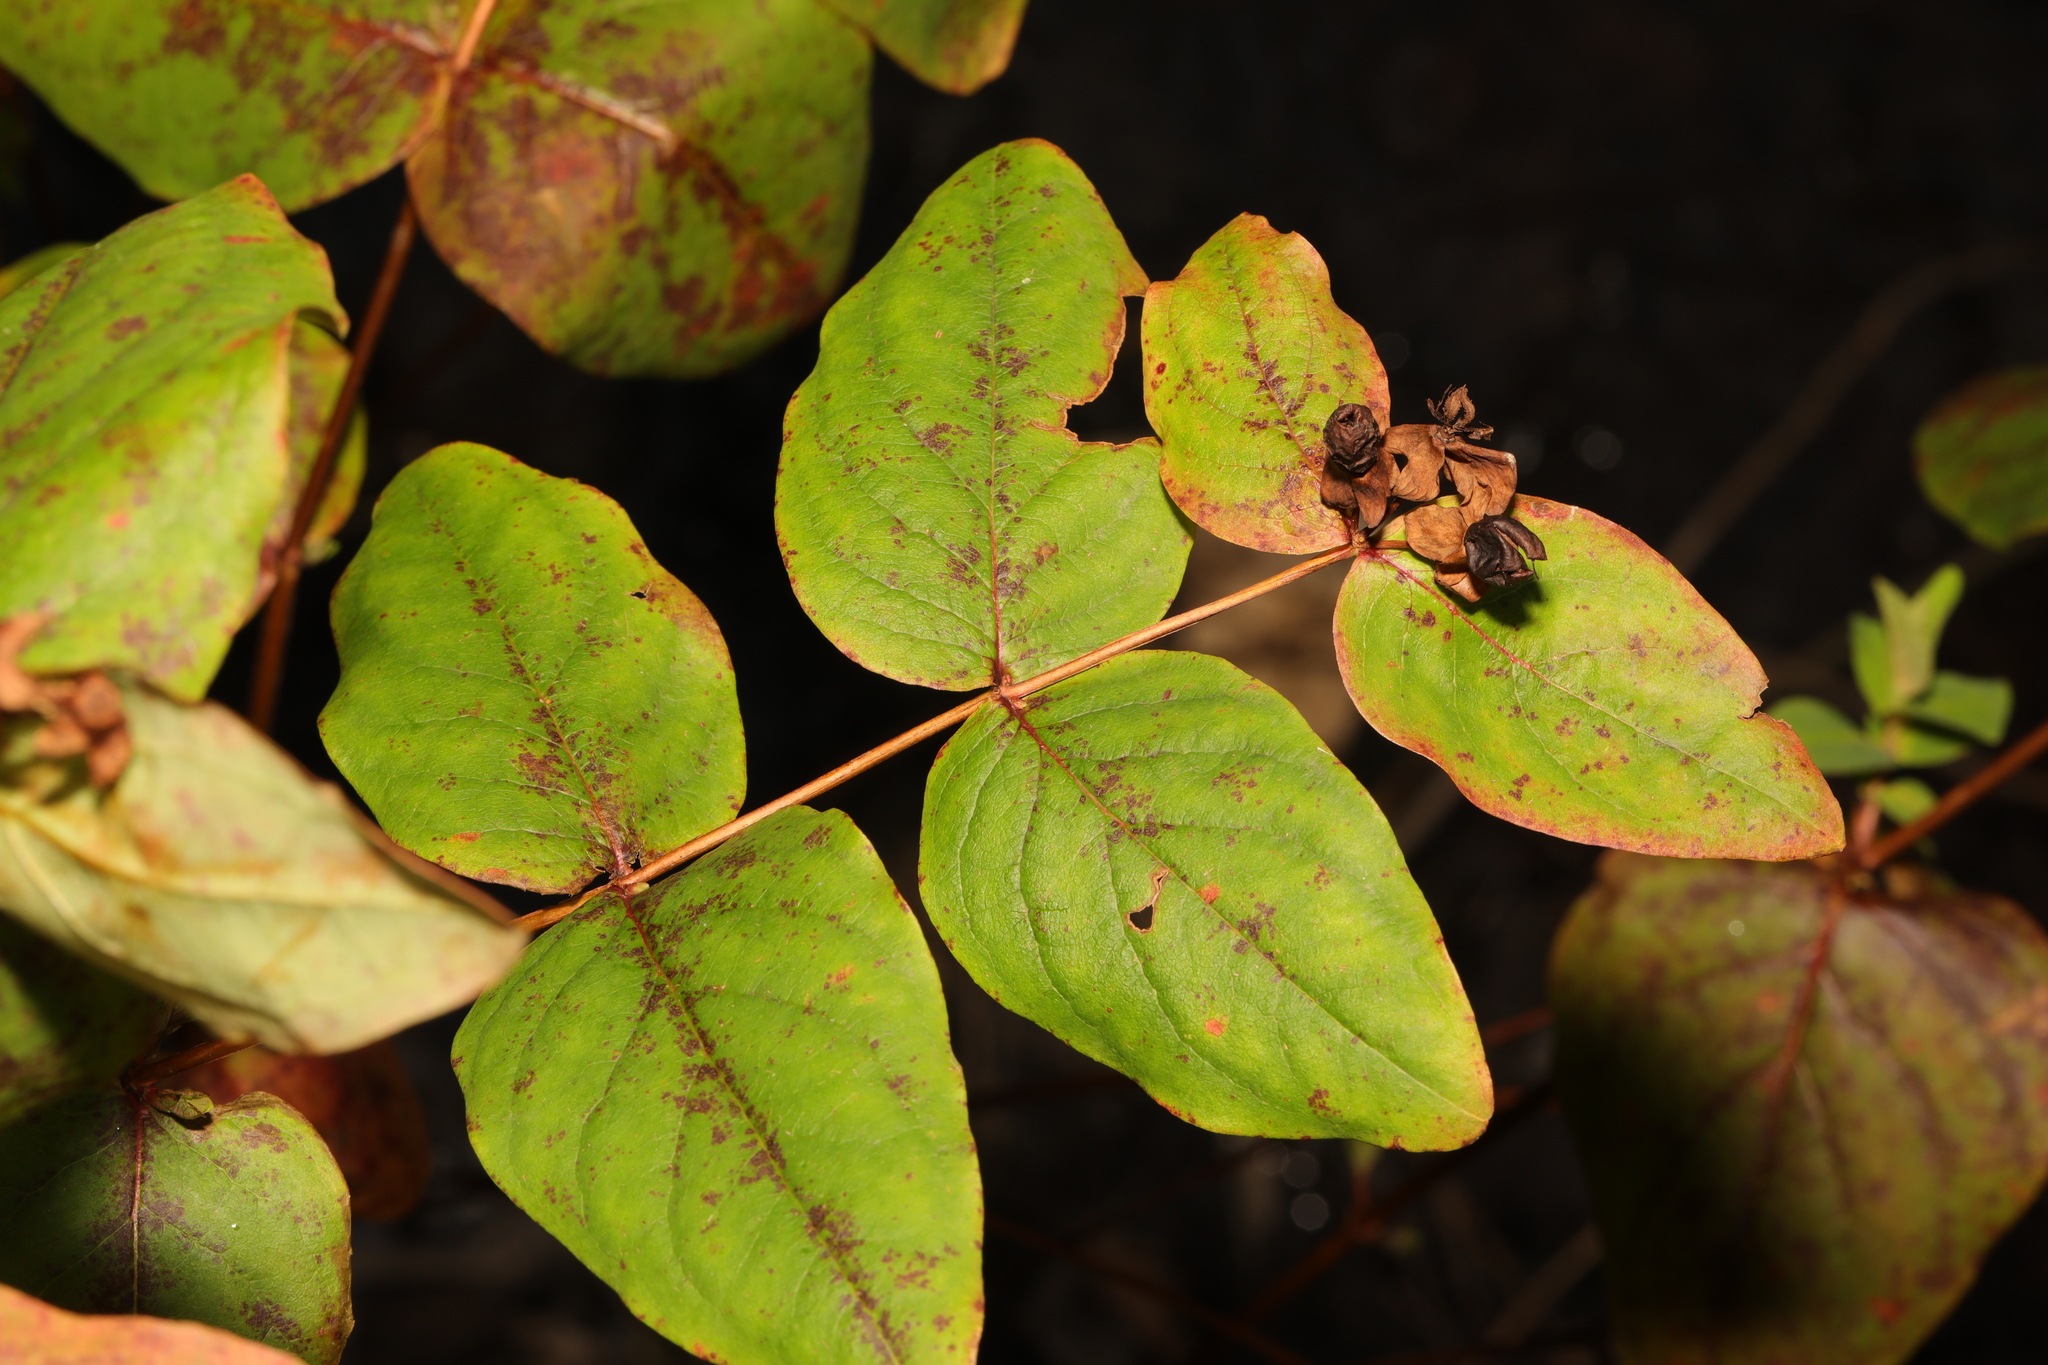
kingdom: Plantae
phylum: Tracheophyta
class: Magnoliopsida
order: Malpighiales
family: Hypericaceae
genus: Hypericum
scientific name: Hypericum androsaemum
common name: Sweet-amber
